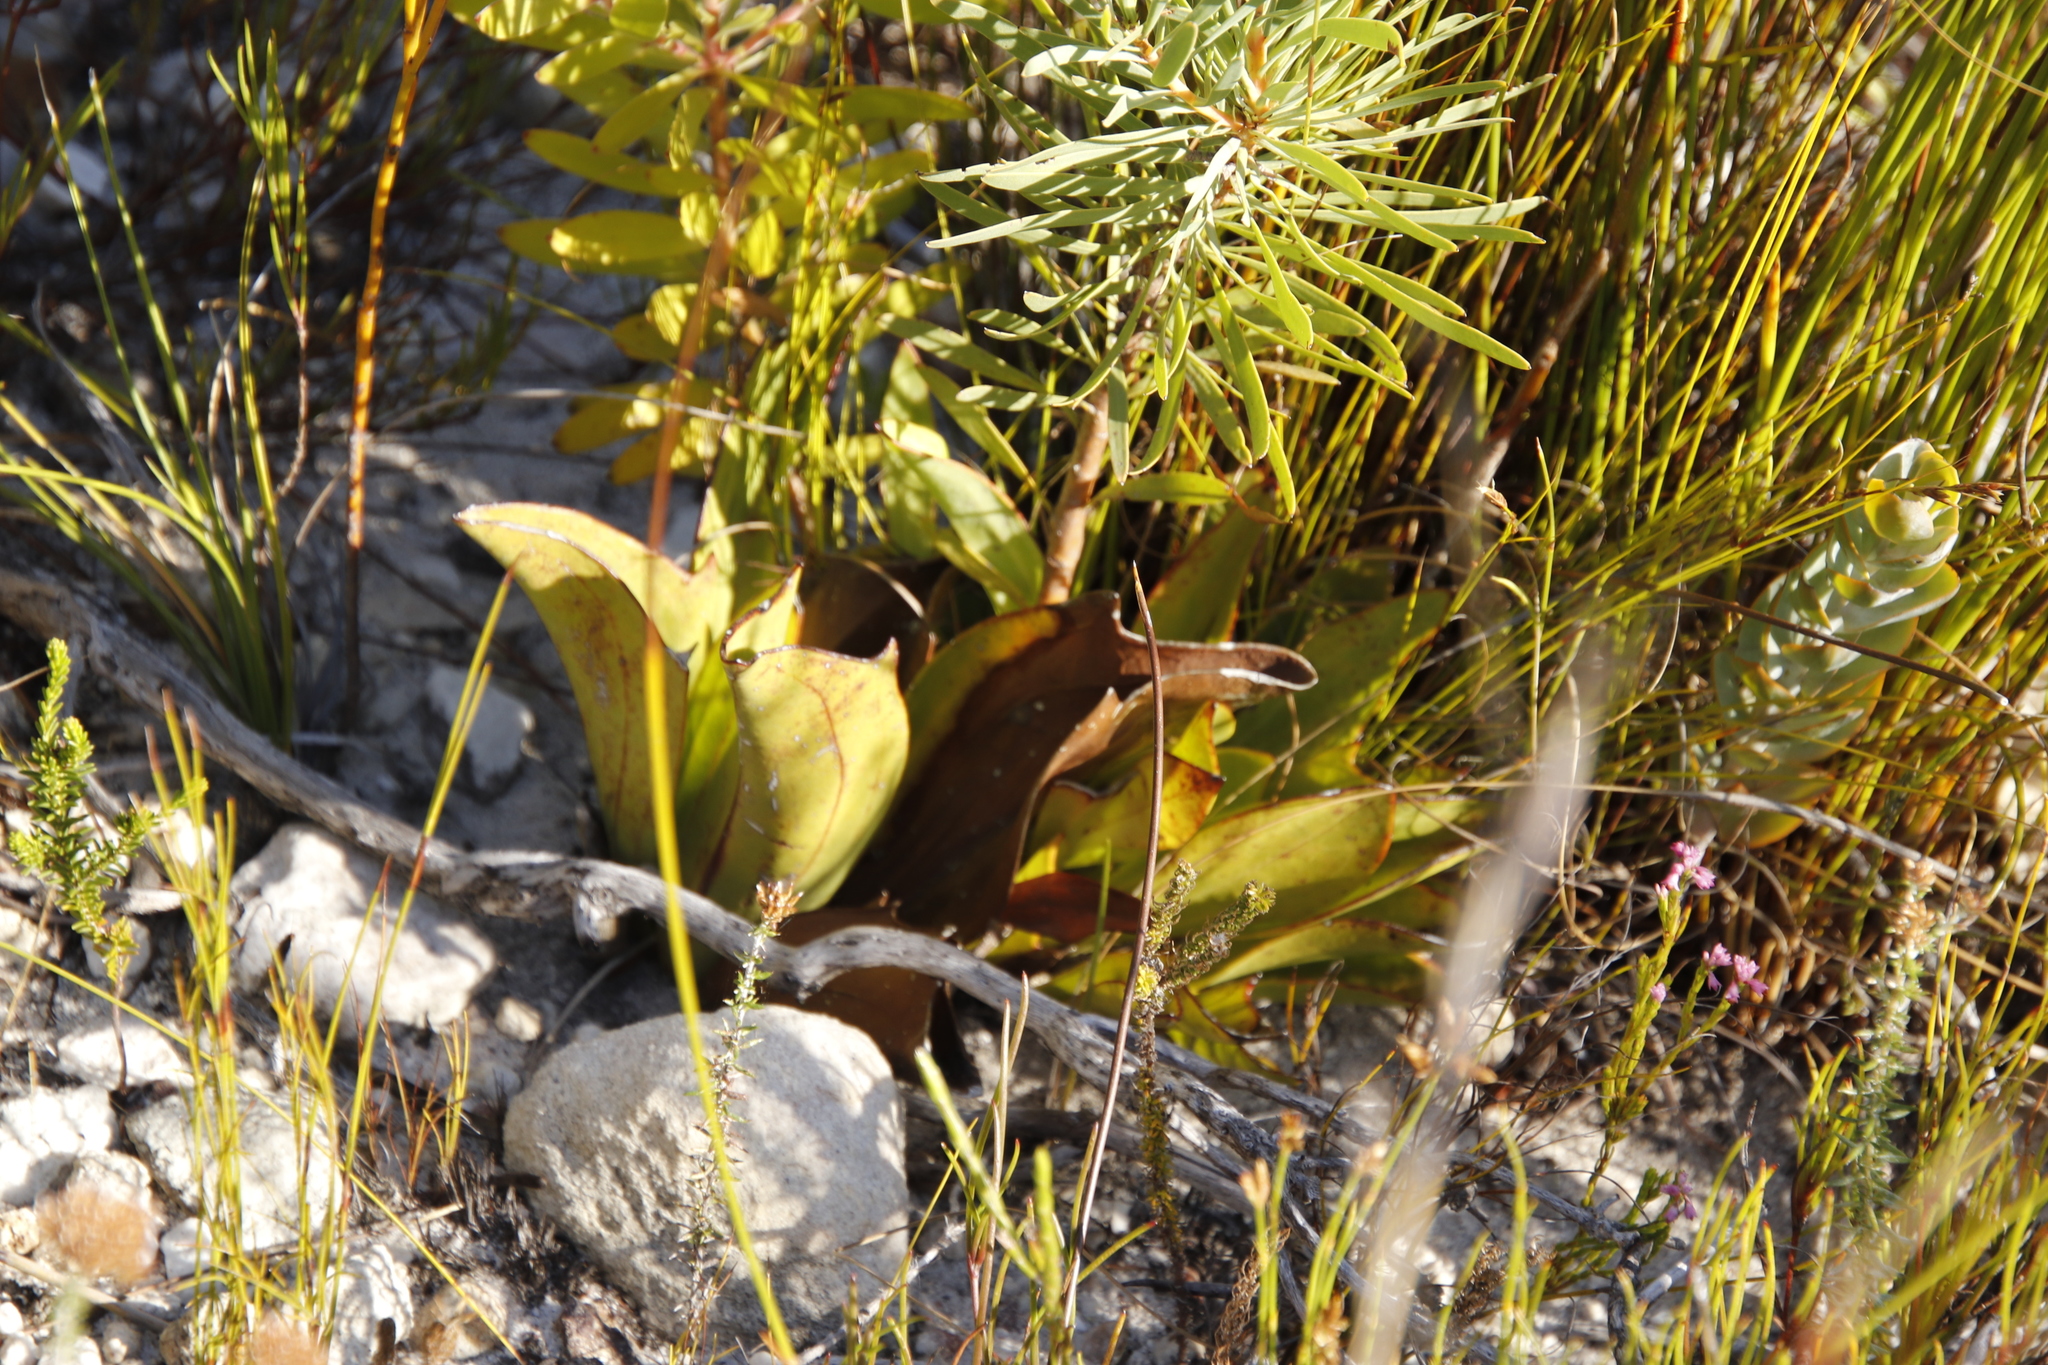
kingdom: Plantae
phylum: Tracheophyta
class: Magnoliopsida
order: Asterales
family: Asteraceae
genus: Mairia
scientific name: Mairia coriacea
